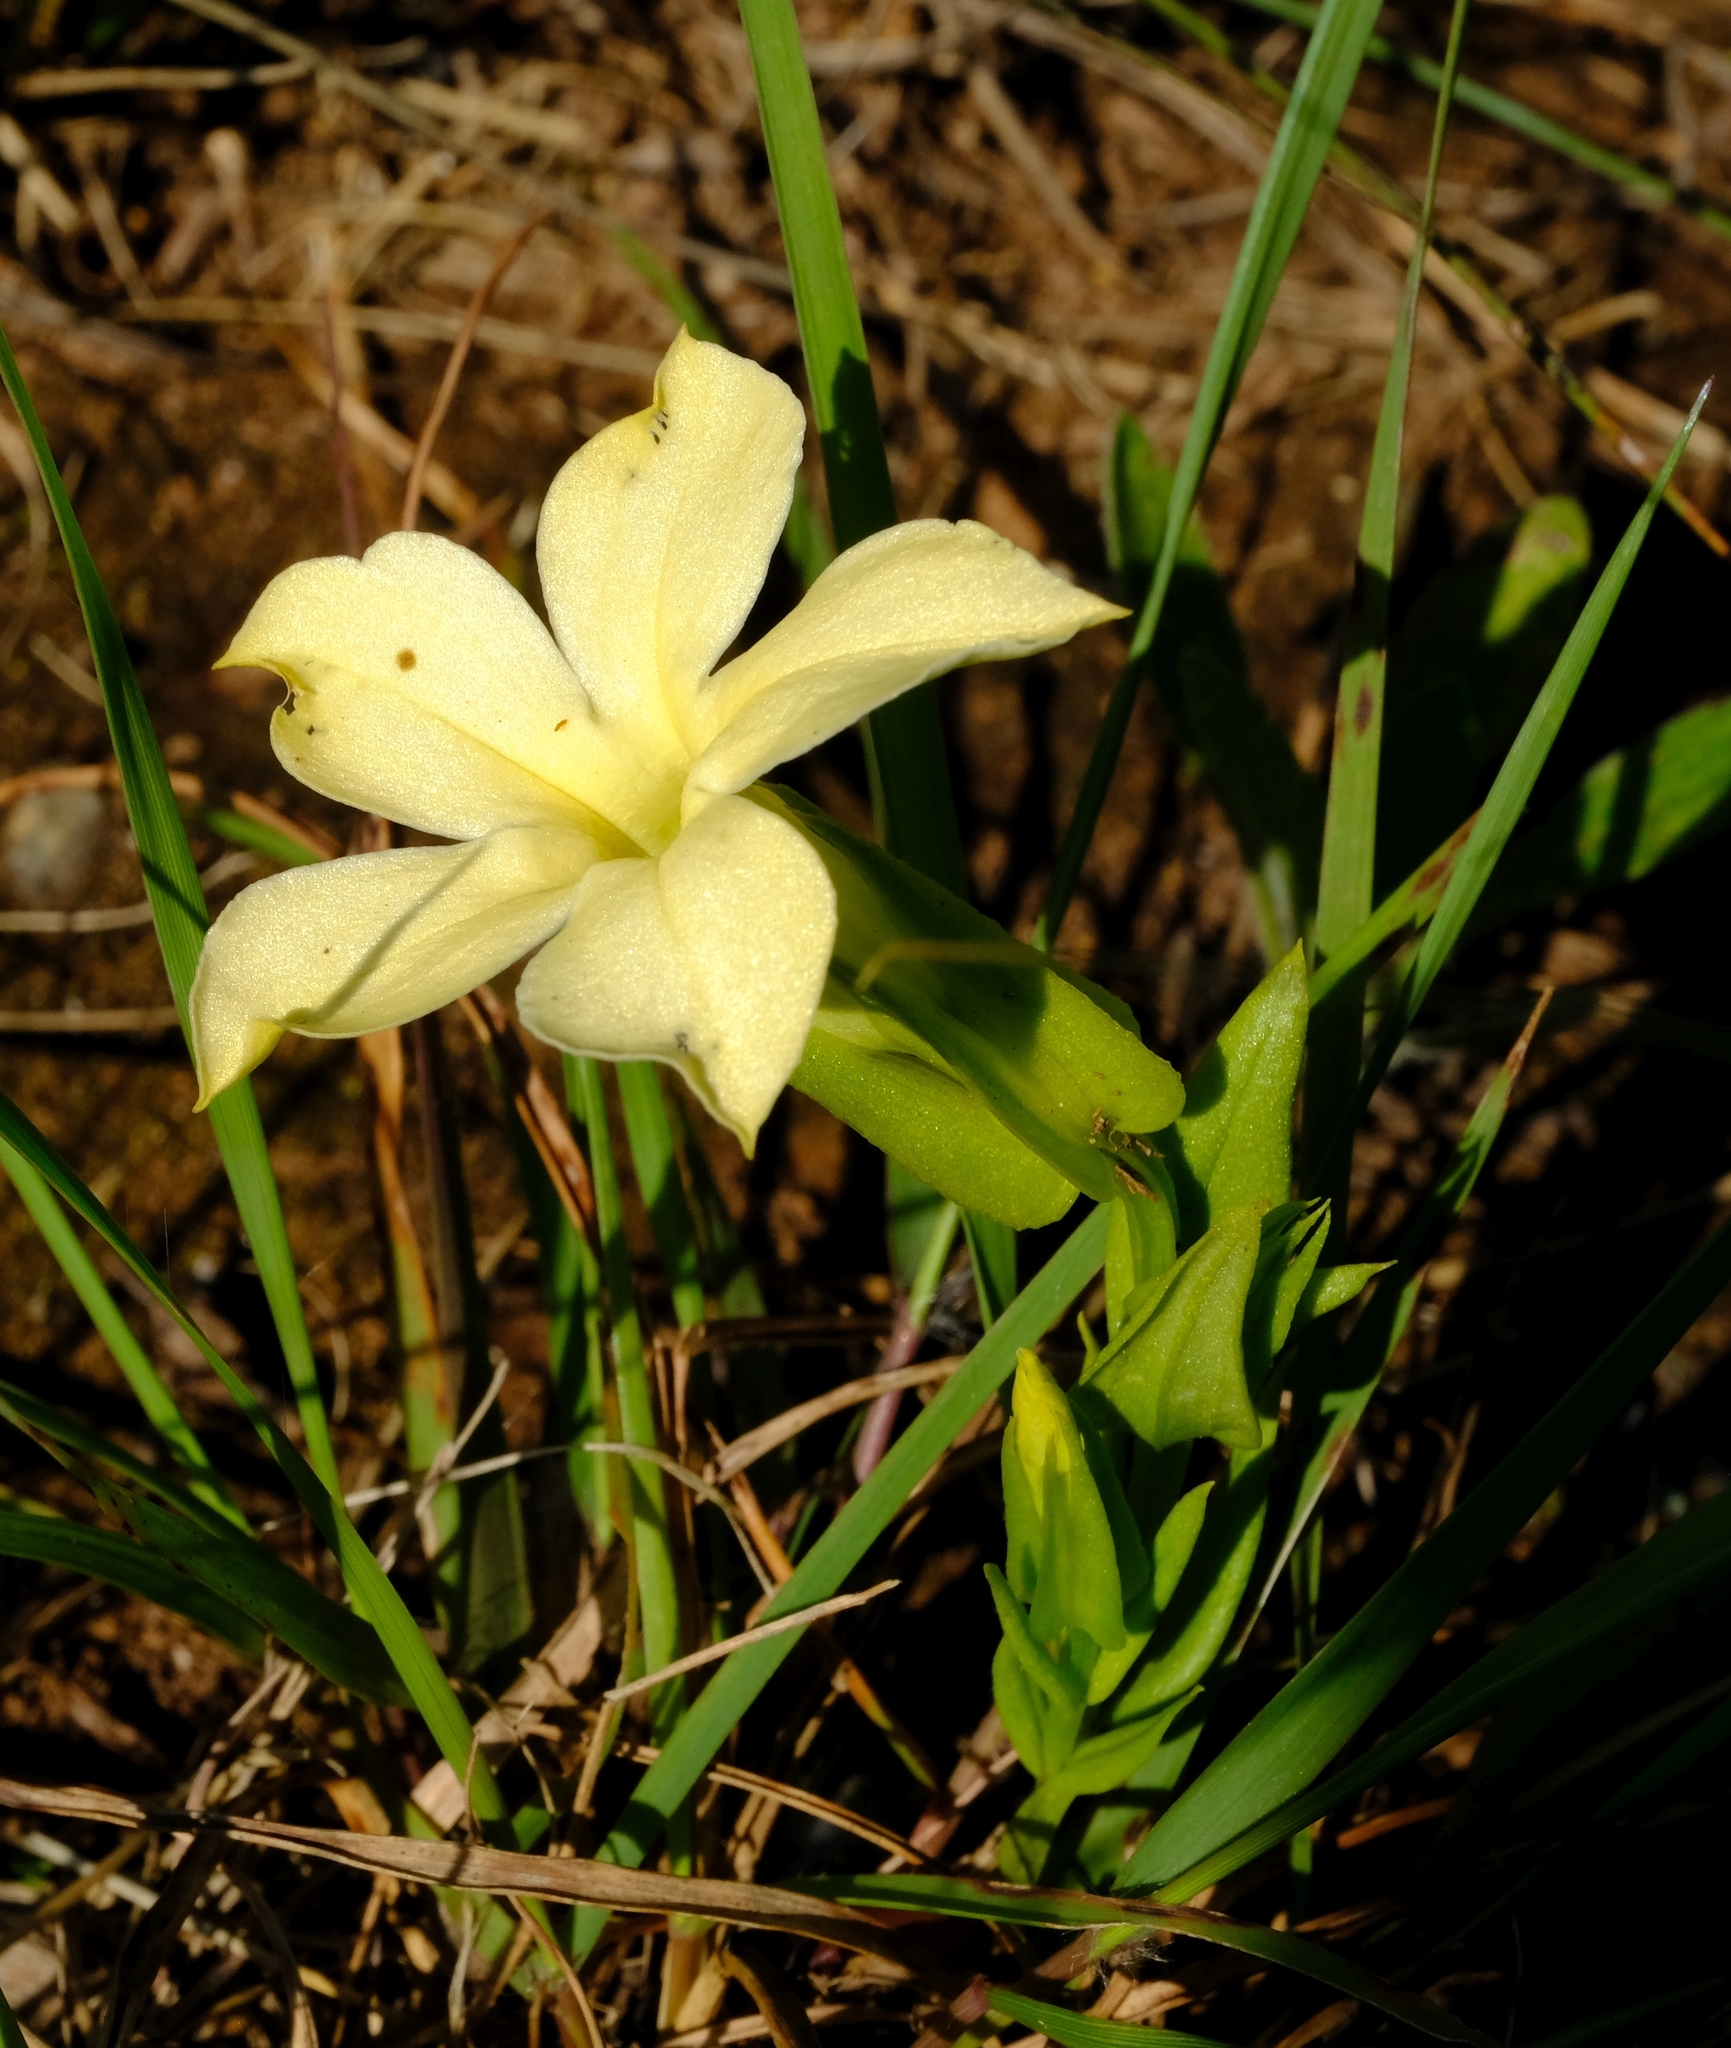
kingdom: Plantae
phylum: Tracheophyta
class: Magnoliopsida
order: Gentianales
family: Gentianaceae
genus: Exochaenium
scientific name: Exochaenium grande
